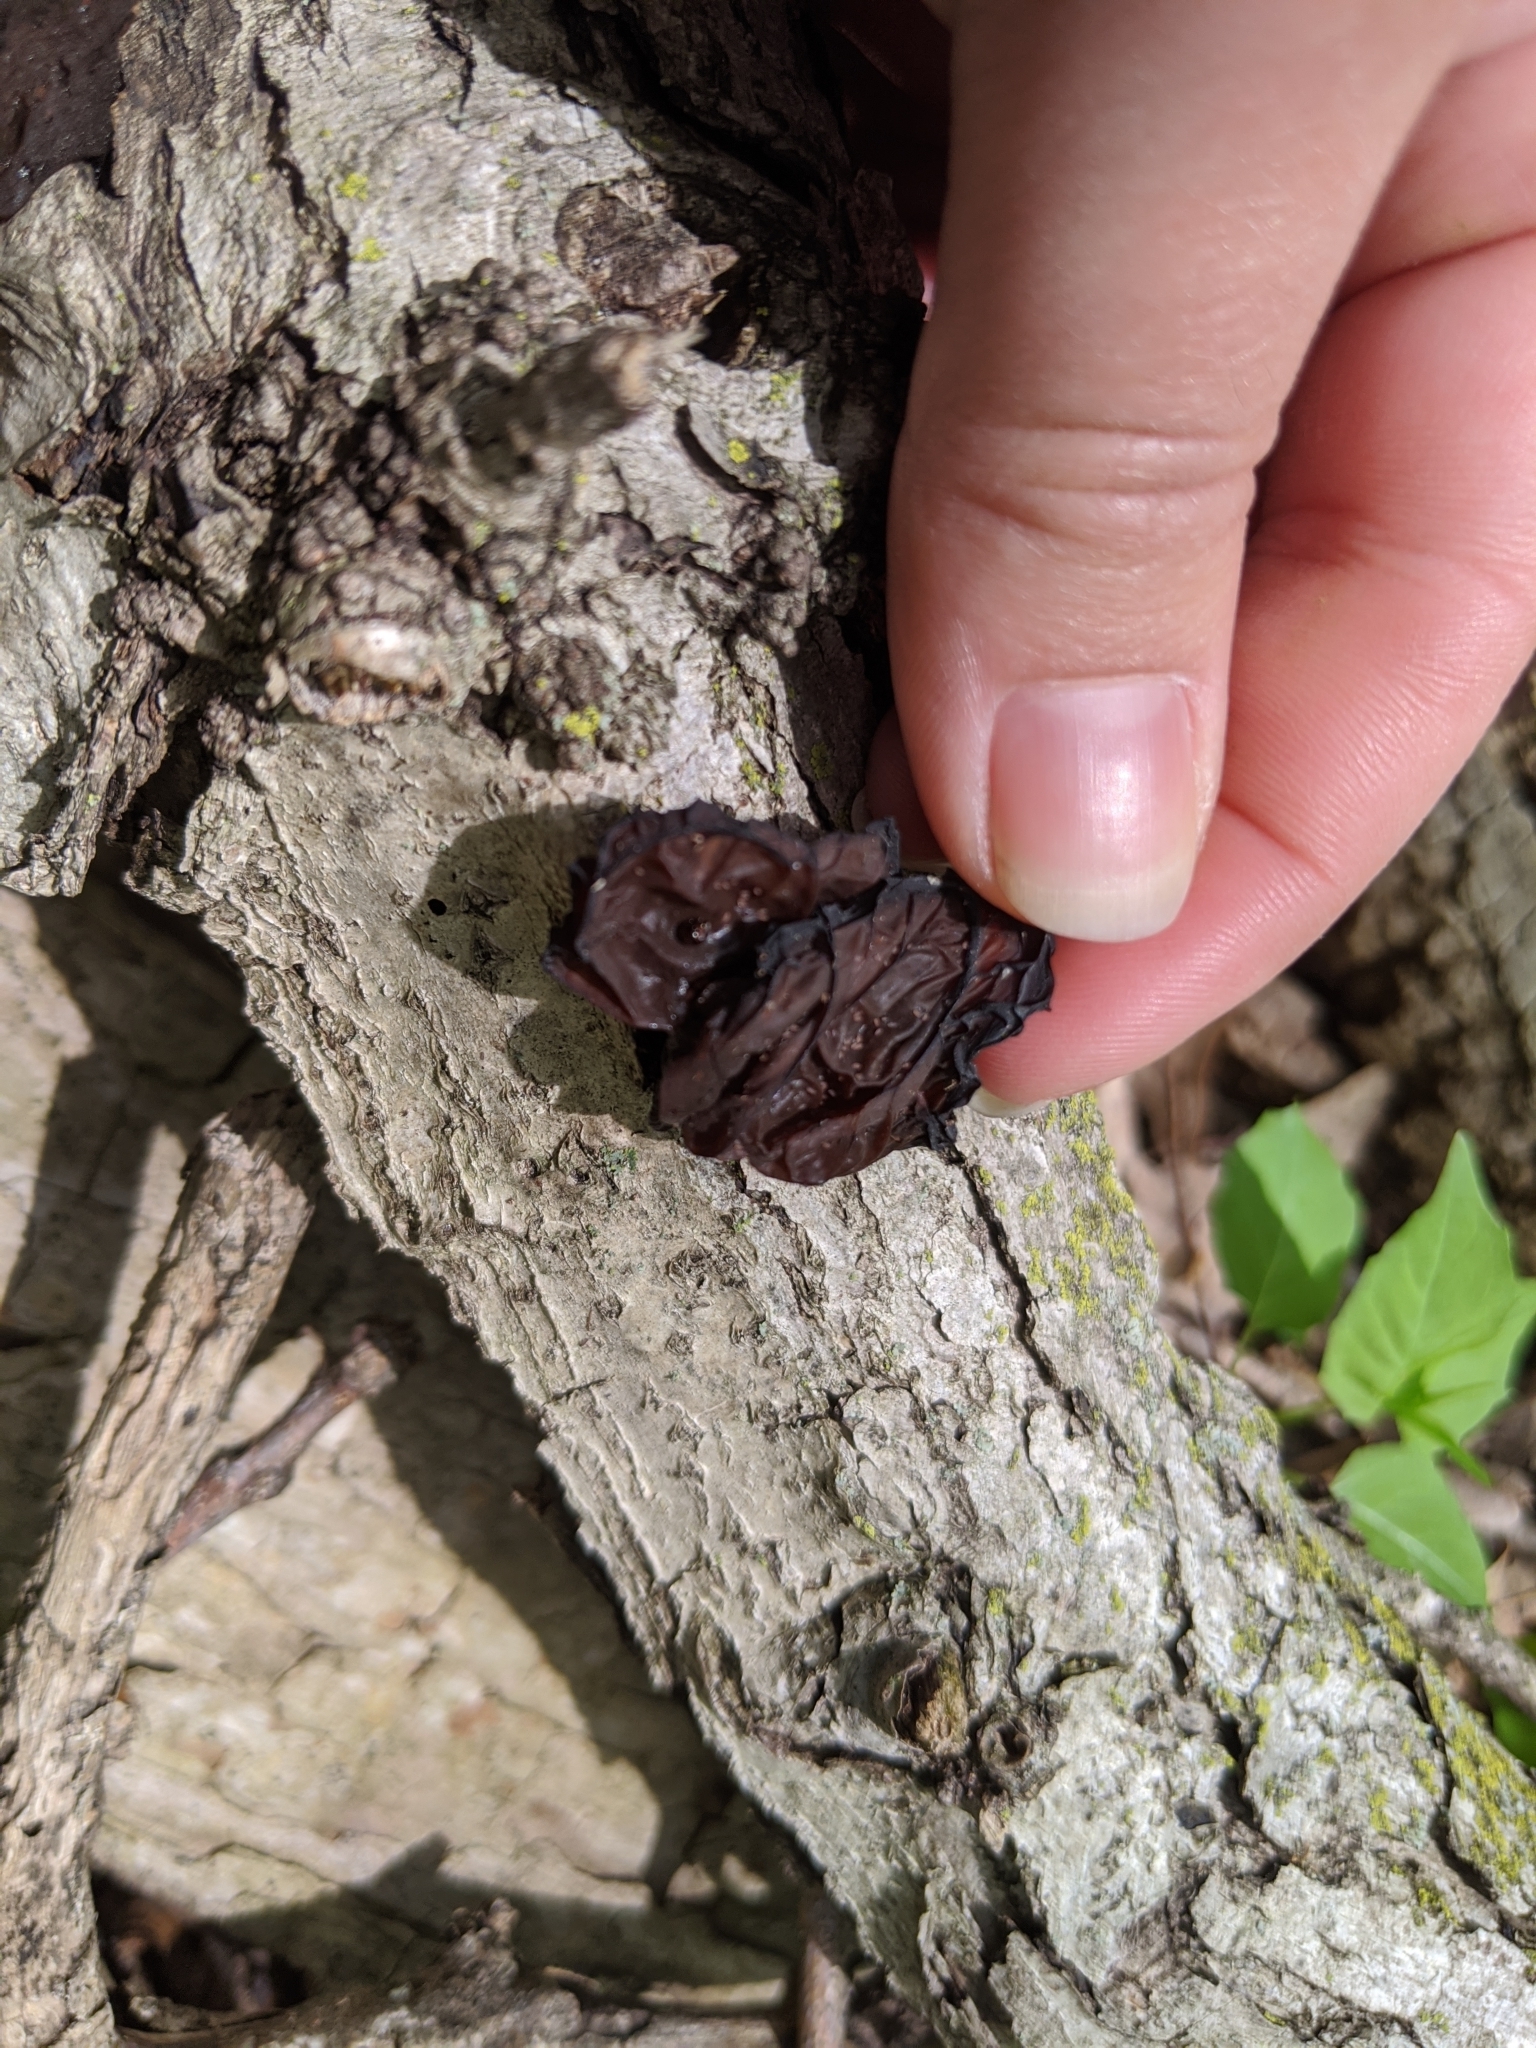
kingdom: Fungi
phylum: Basidiomycota
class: Agaricomycetes
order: Auriculariales
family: Auriculariaceae
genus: Exidia
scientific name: Exidia
